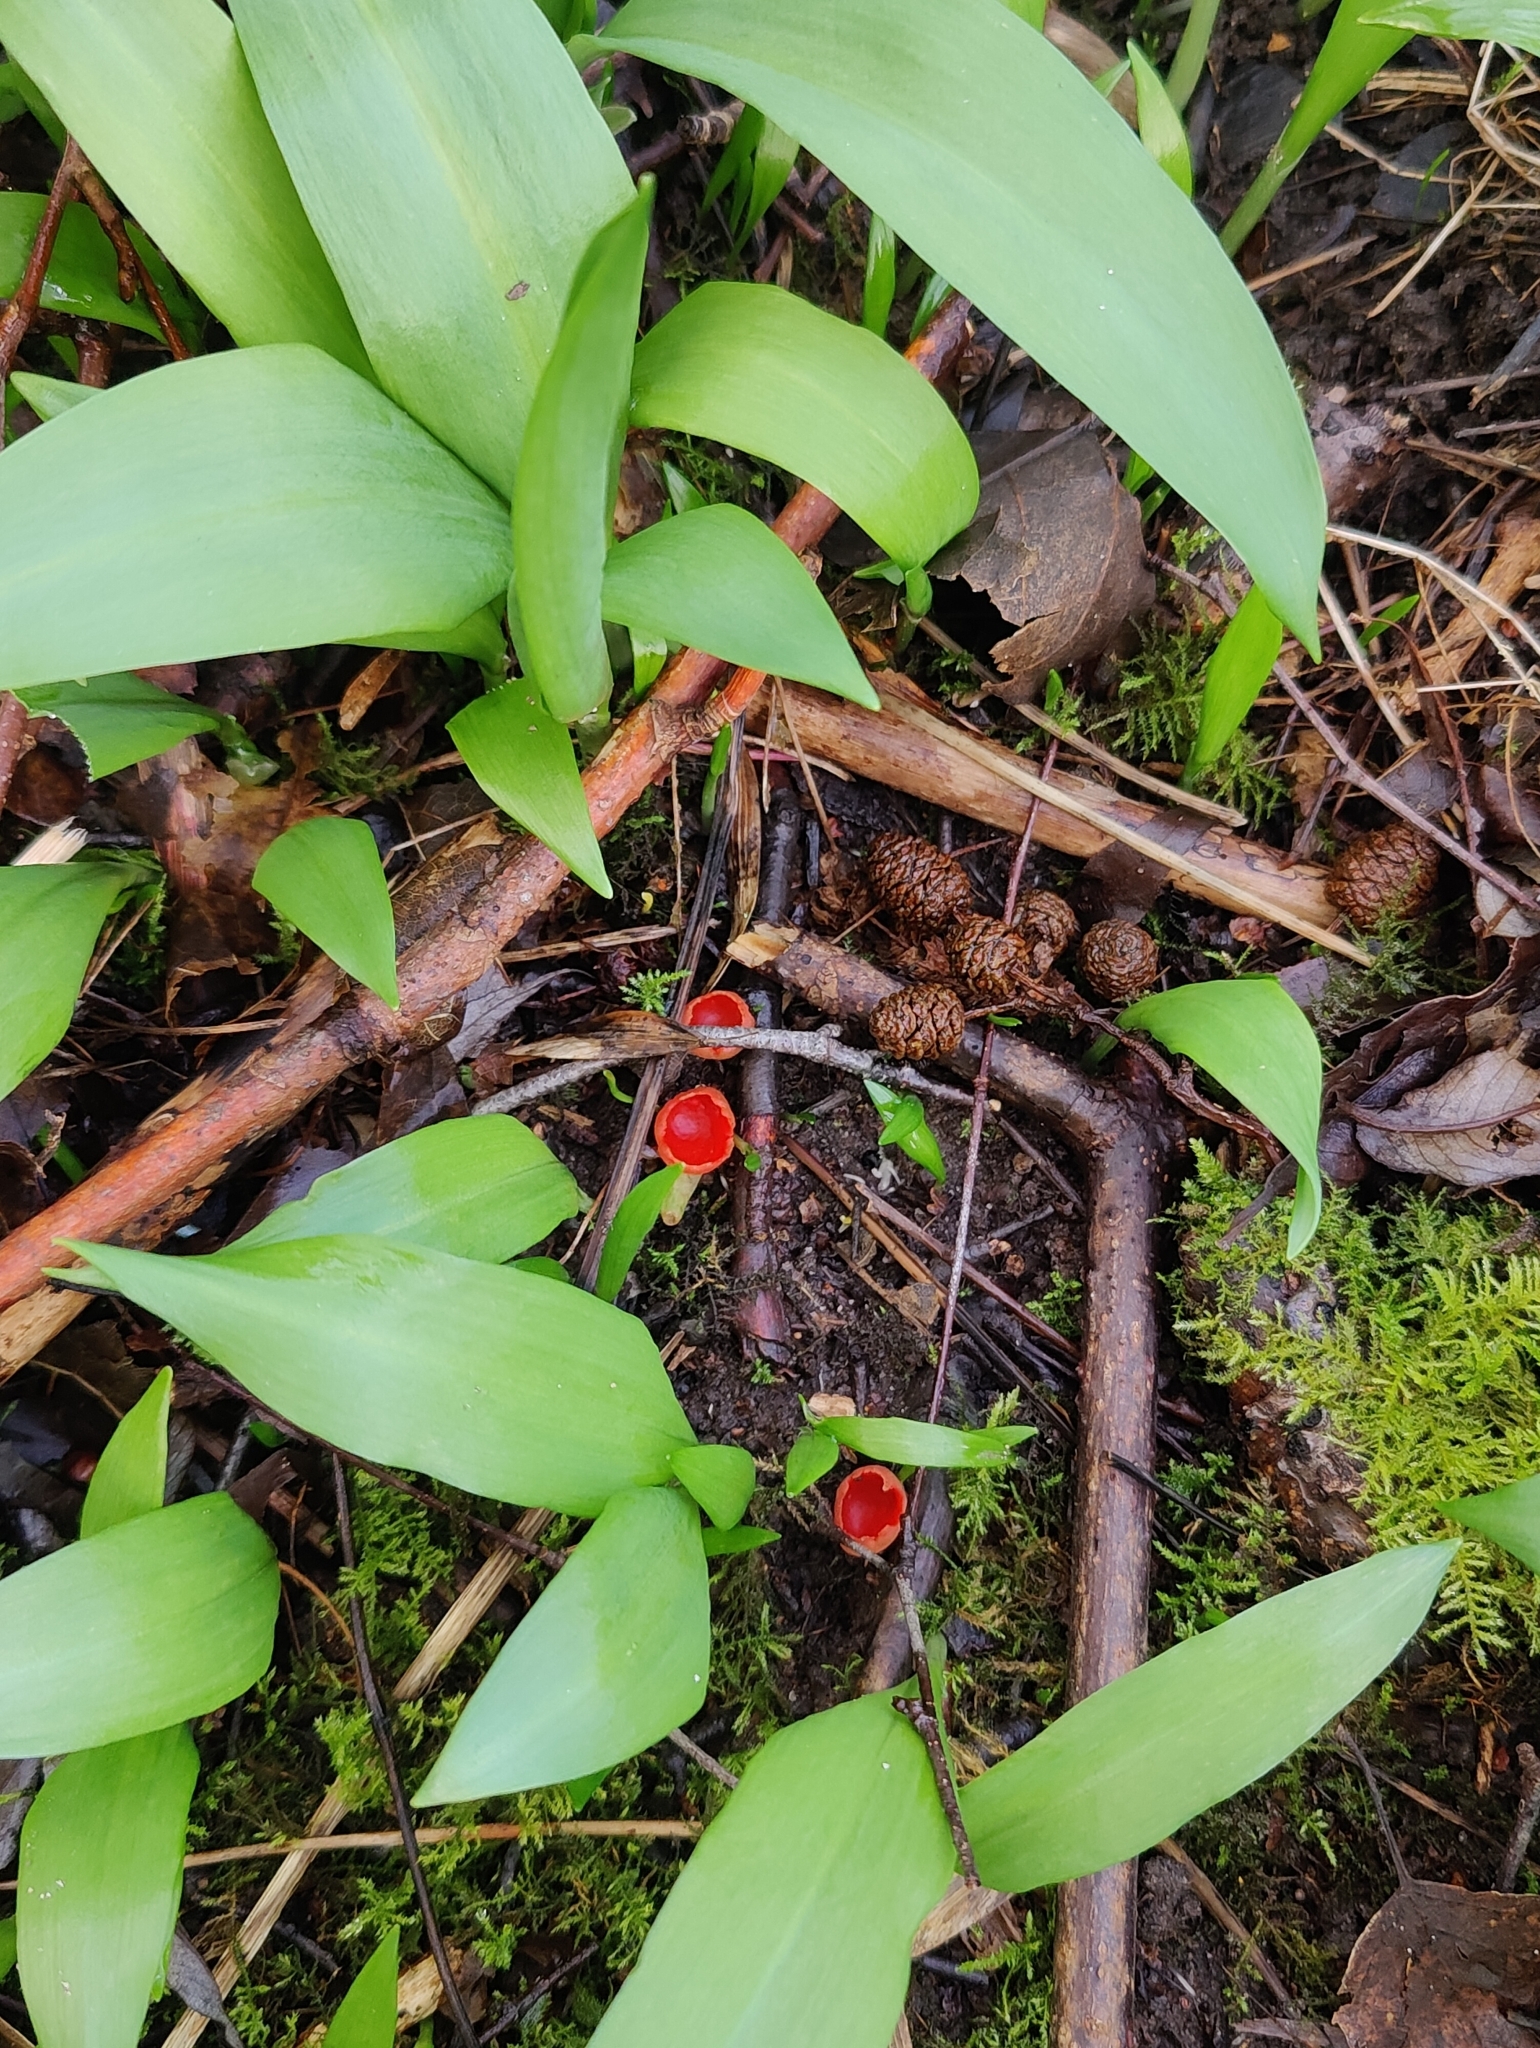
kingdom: Fungi
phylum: Ascomycota
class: Pezizomycetes
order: Pezizales
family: Sarcoscyphaceae
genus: Sarcoscypha
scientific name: Sarcoscypha
